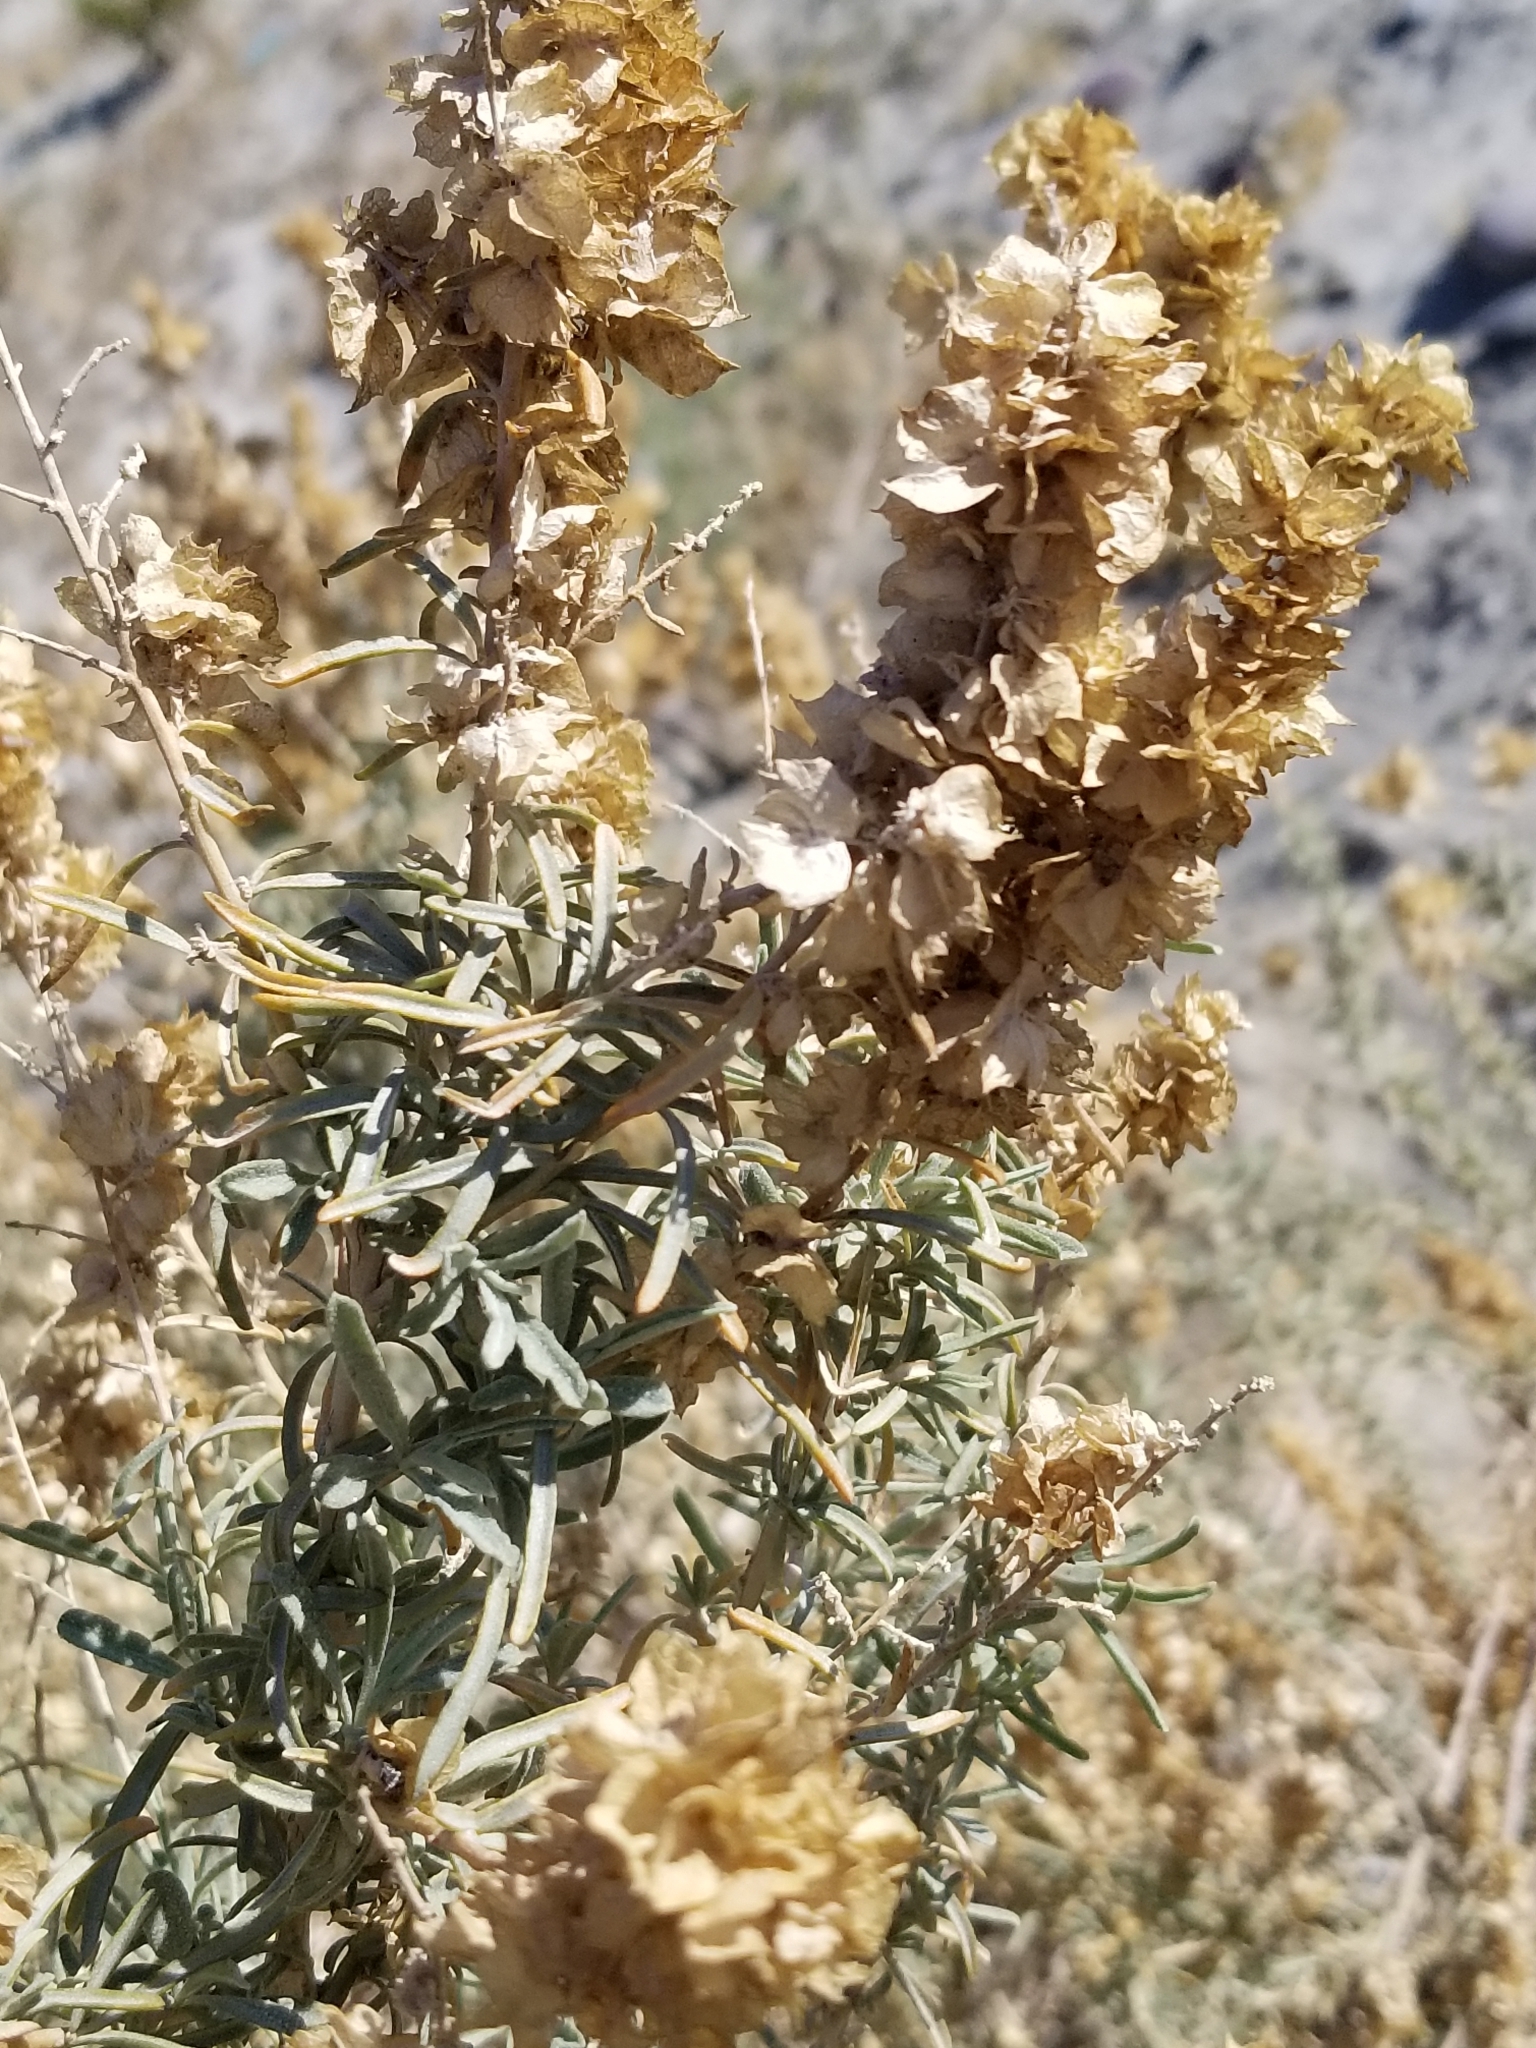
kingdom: Plantae
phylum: Tracheophyta
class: Magnoliopsida
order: Caryophyllales
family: Amaranthaceae
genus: Atriplex
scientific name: Atriplex canescens
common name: Four-wing saltbush
